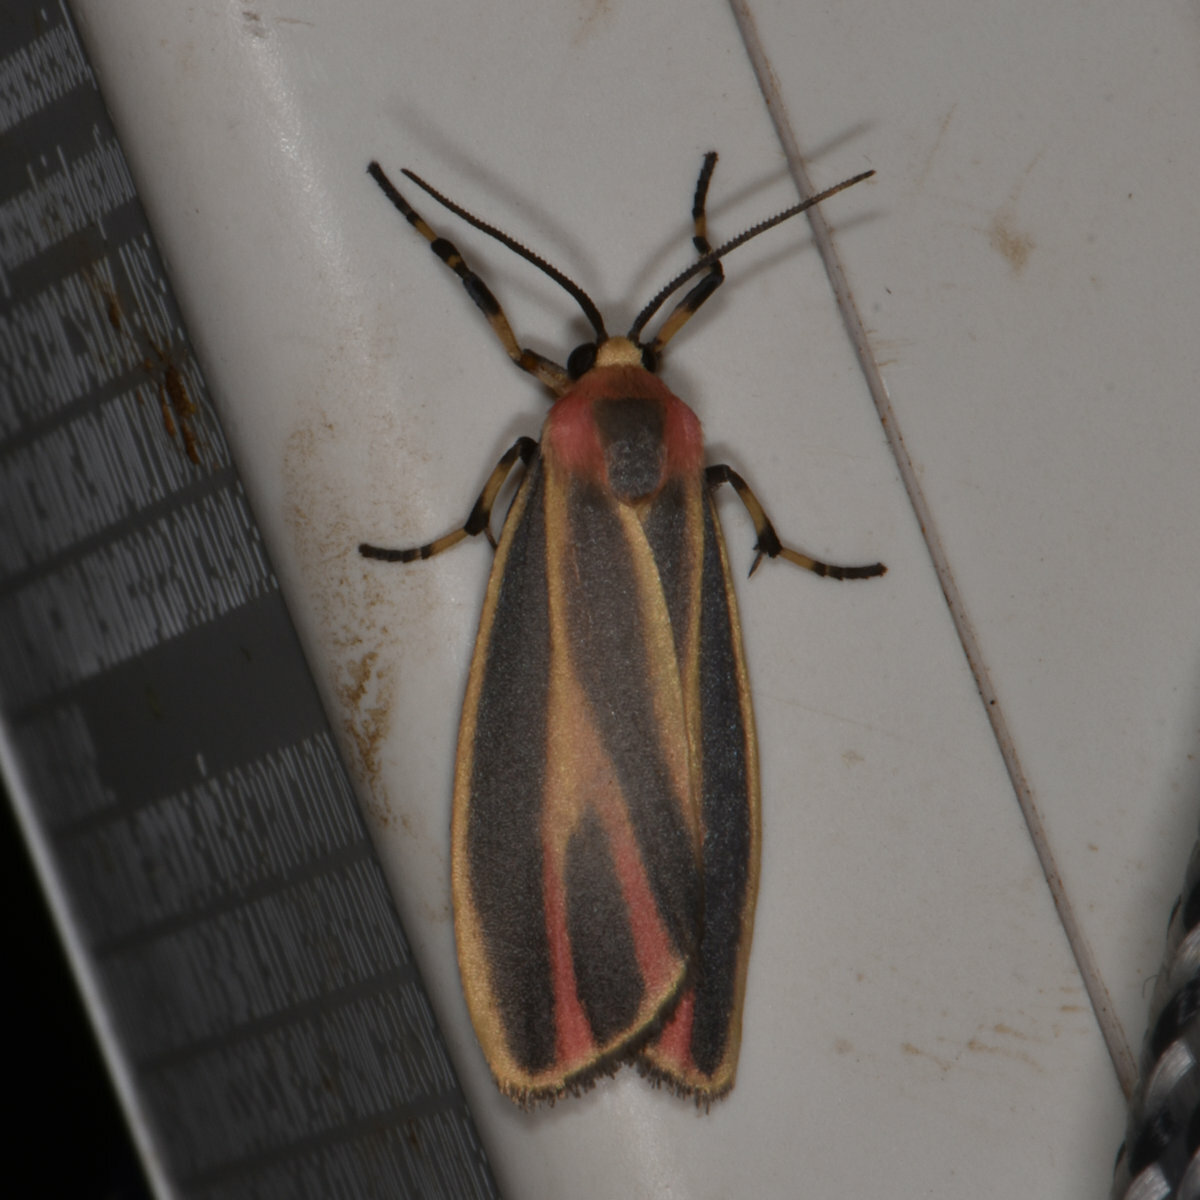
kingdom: Animalia
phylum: Arthropoda
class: Insecta
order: Lepidoptera
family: Erebidae
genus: Hypoprepia
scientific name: Hypoprepia fucosa
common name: Painted lichen moth
